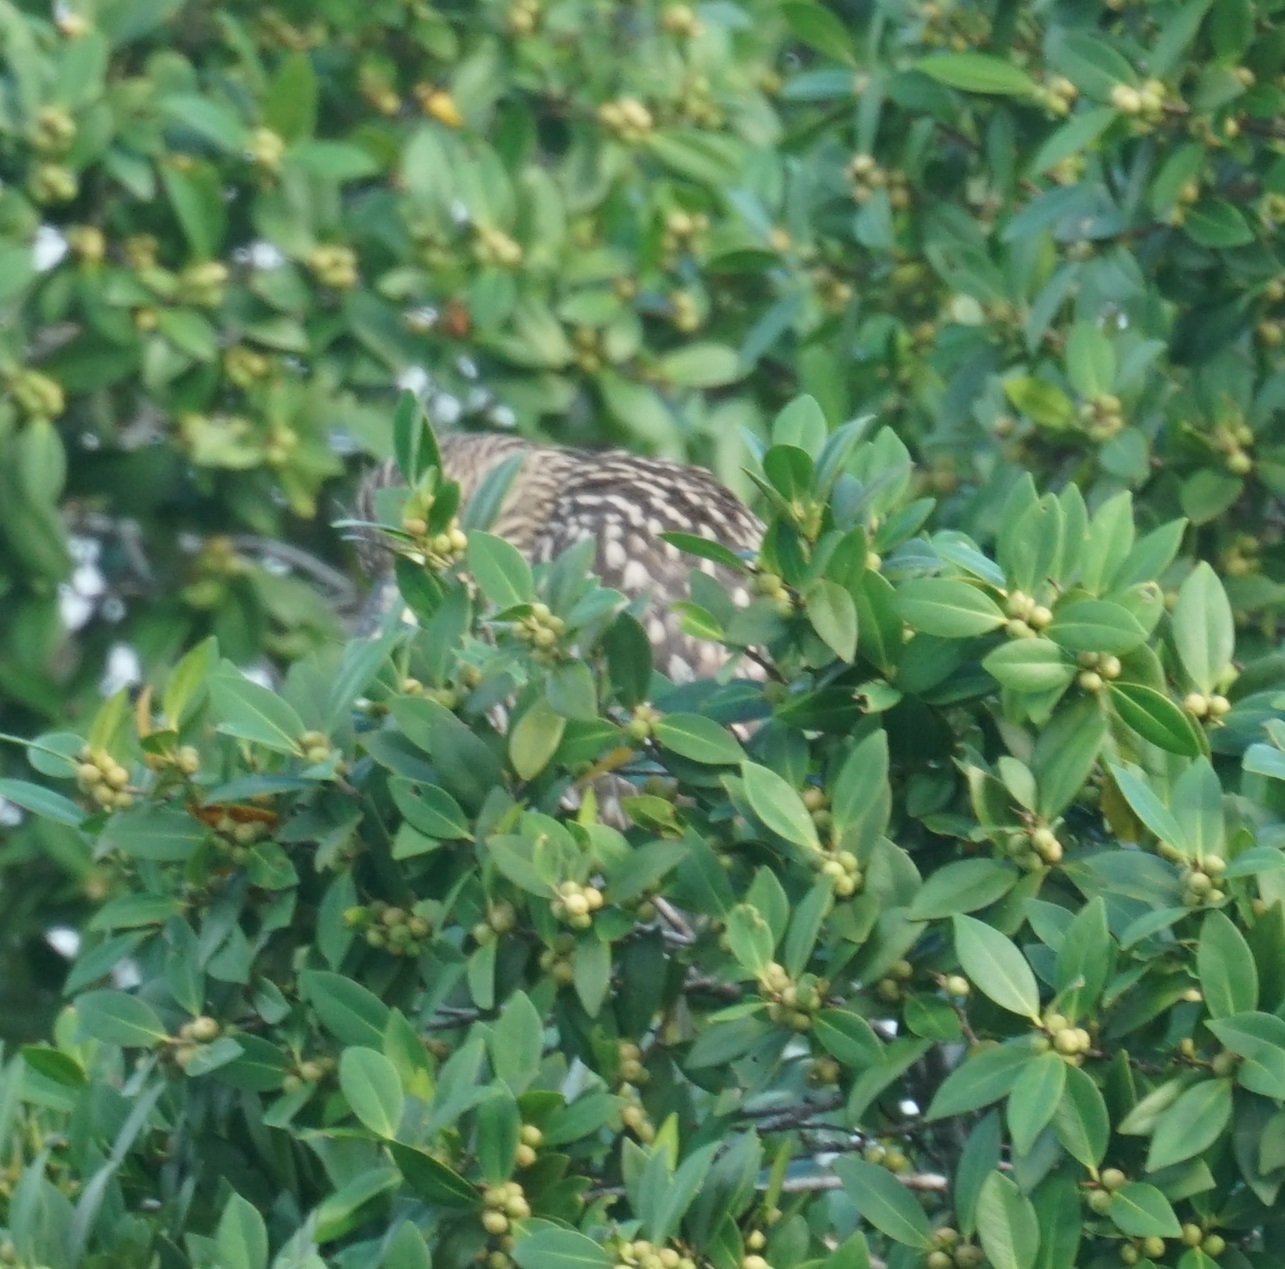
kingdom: Animalia
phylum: Chordata
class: Aves
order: Pelecaniformes
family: Ardeidae
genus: Nycticorax
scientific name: Nycticorax caledonicus
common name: Rufous night-heron
